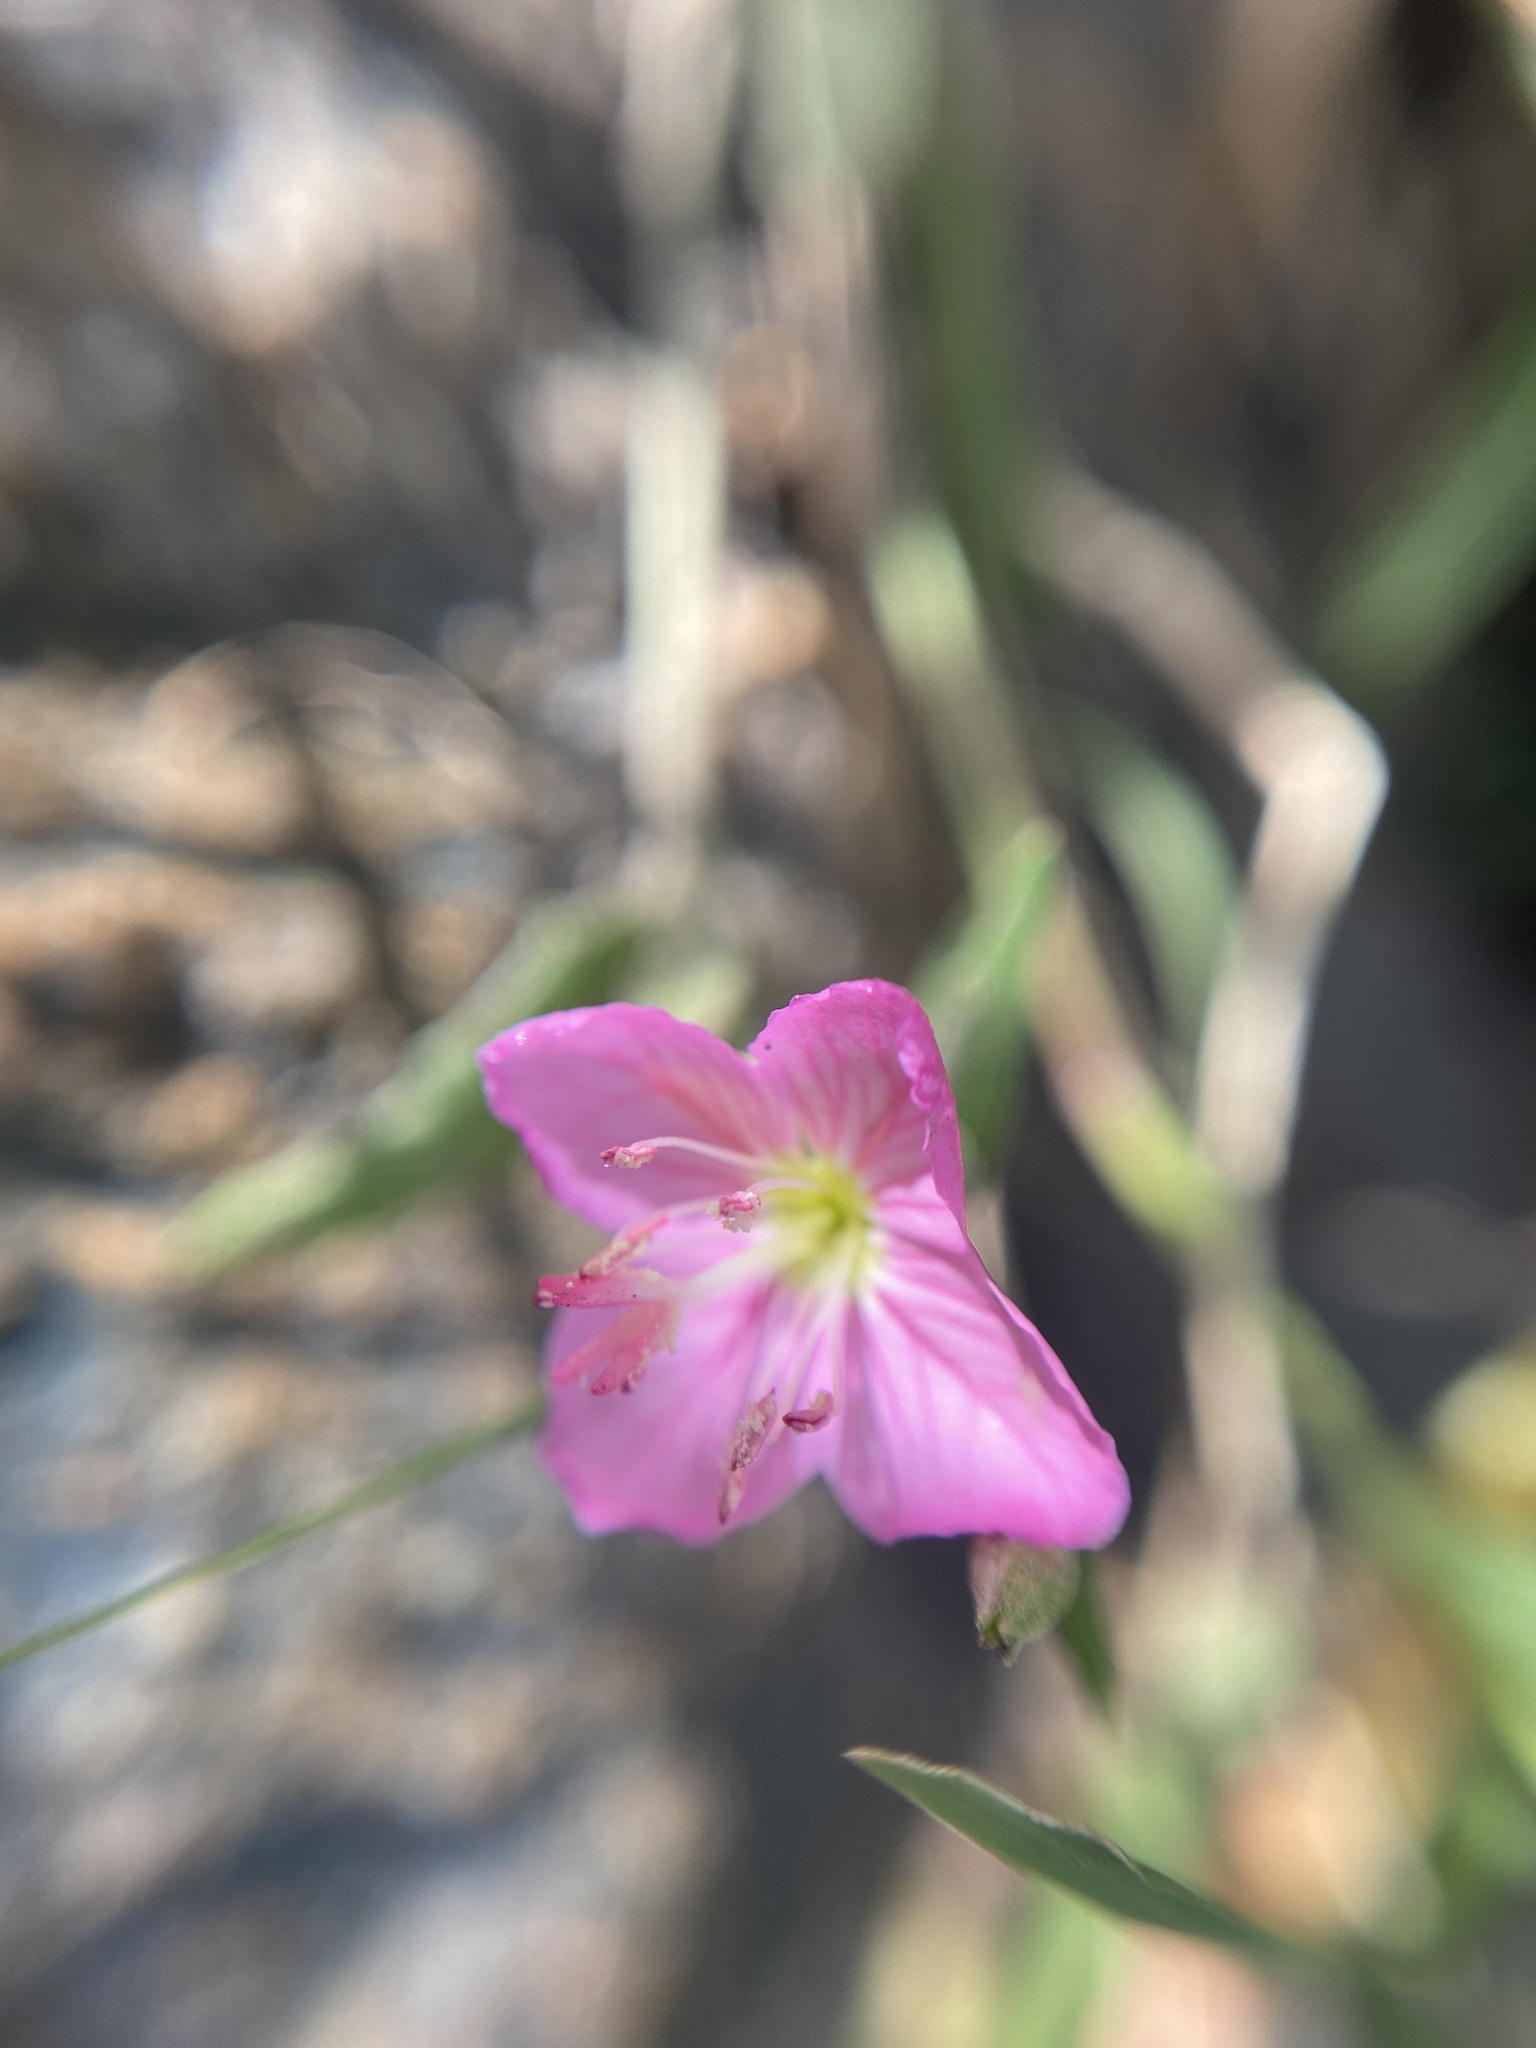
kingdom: Plantae
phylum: Tracheophyta
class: Magnoliopsida
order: Myrtales
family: Onagraceae
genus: Oenothera
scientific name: Oenothera rosea
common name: Rosy evening-primrose
